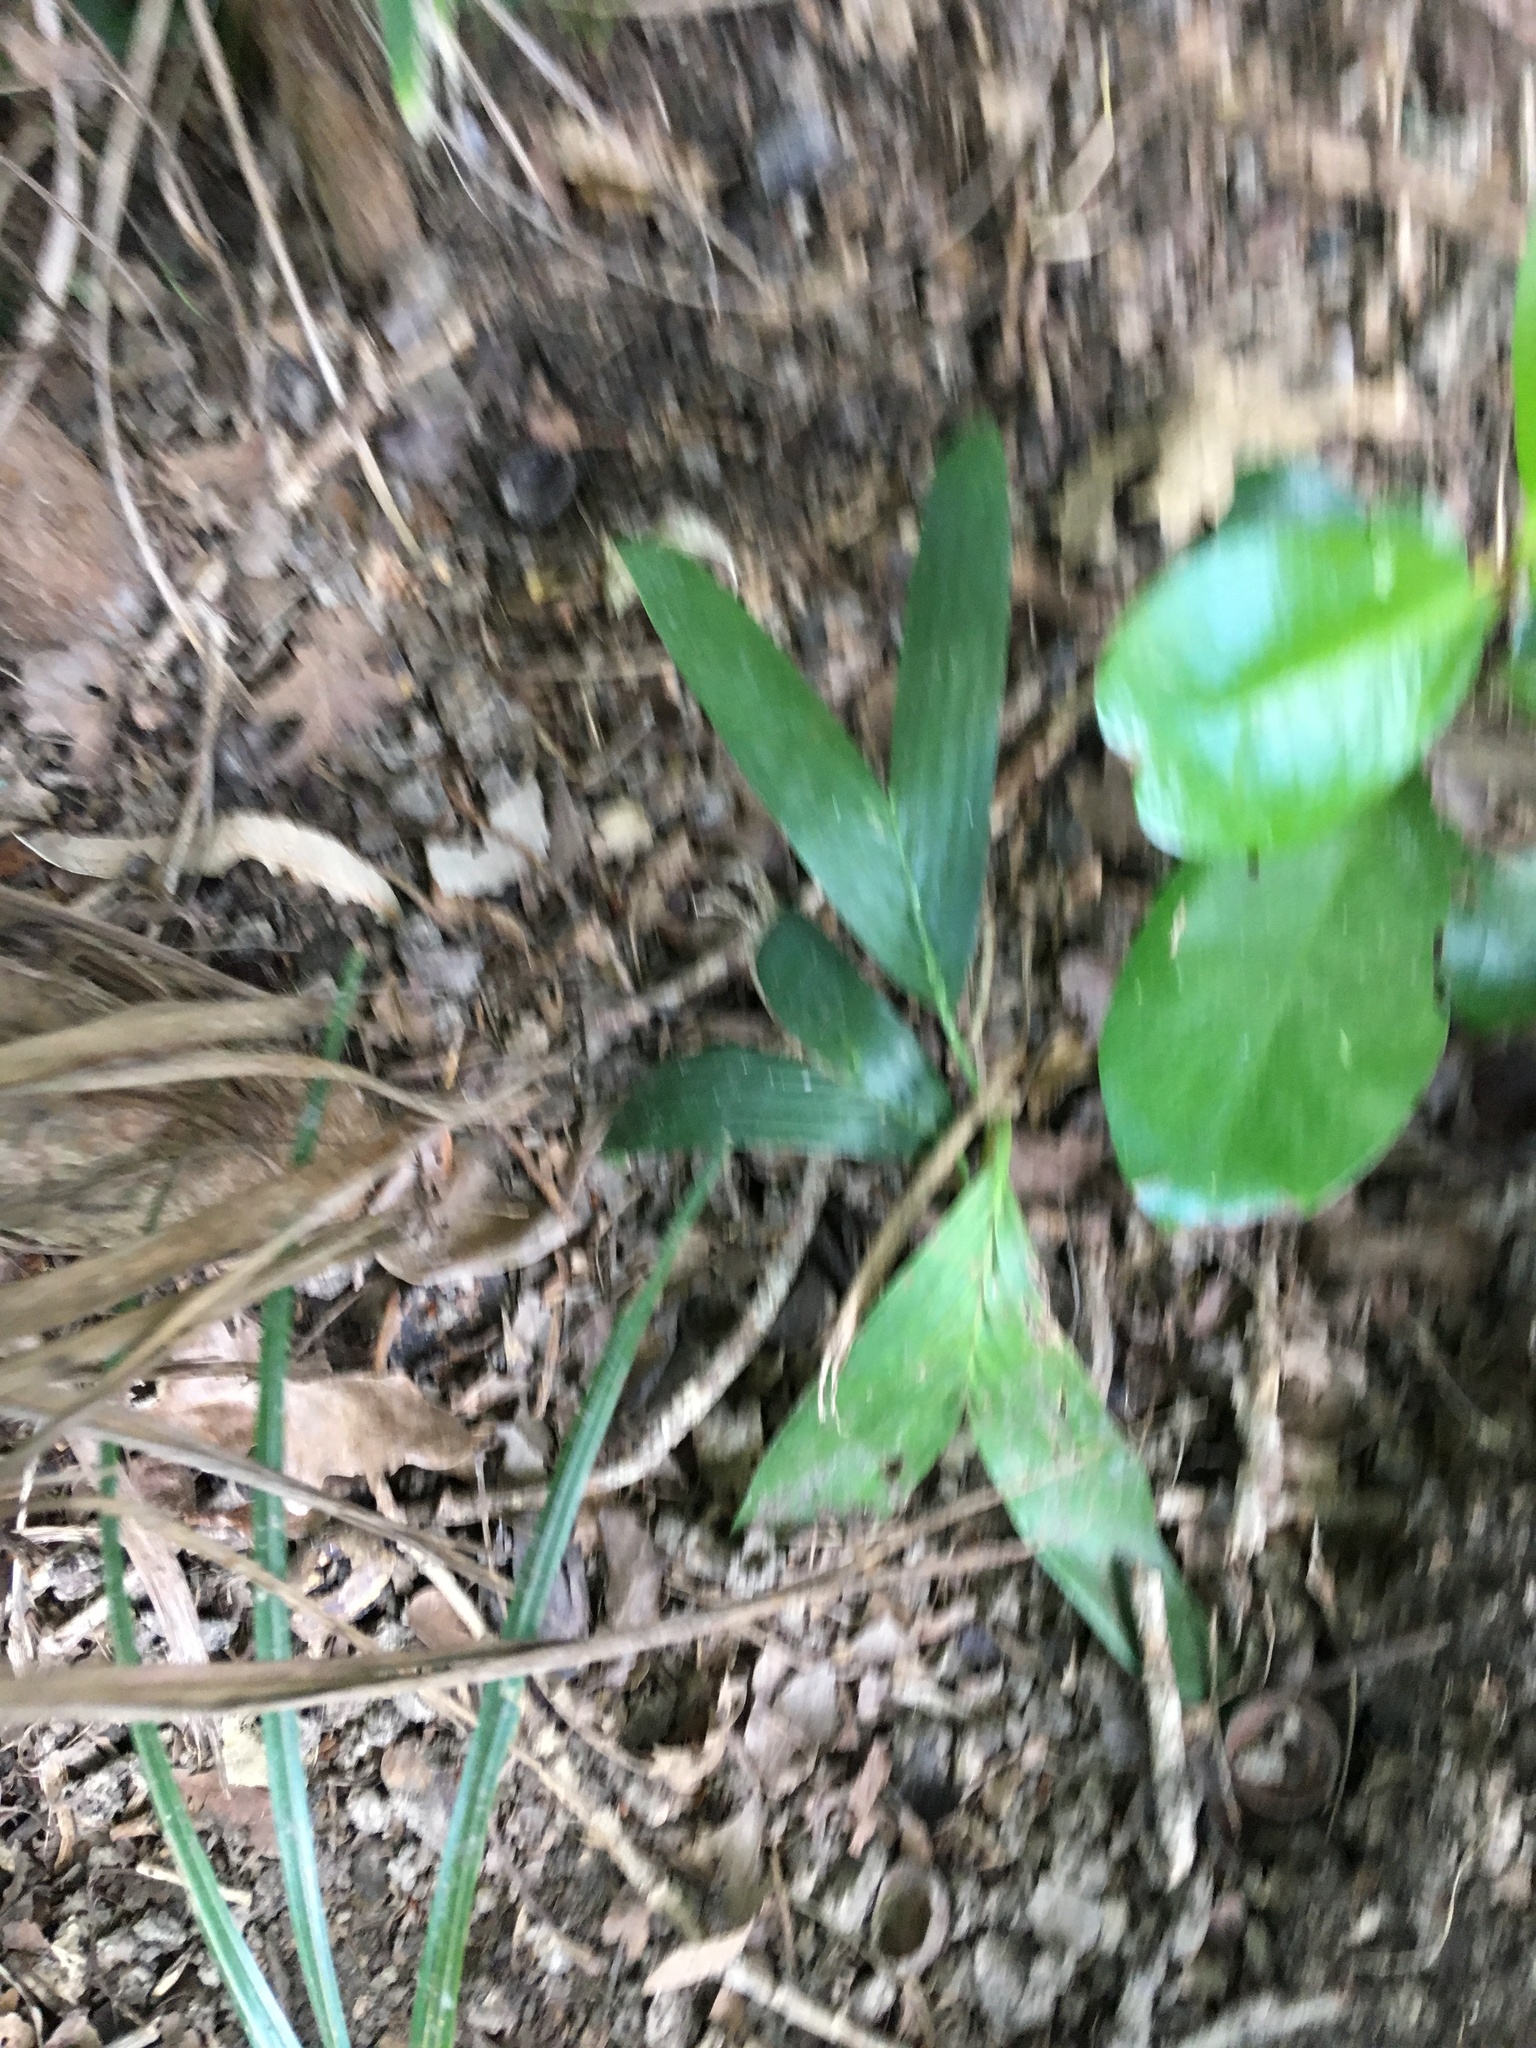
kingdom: Plantae
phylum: Tracheophyta
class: Liliopsida
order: Arecales
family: Arecaceae
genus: Archontophoenix
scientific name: Archontophoenix cunninghamiana
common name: Piccabeen bangalow palm
